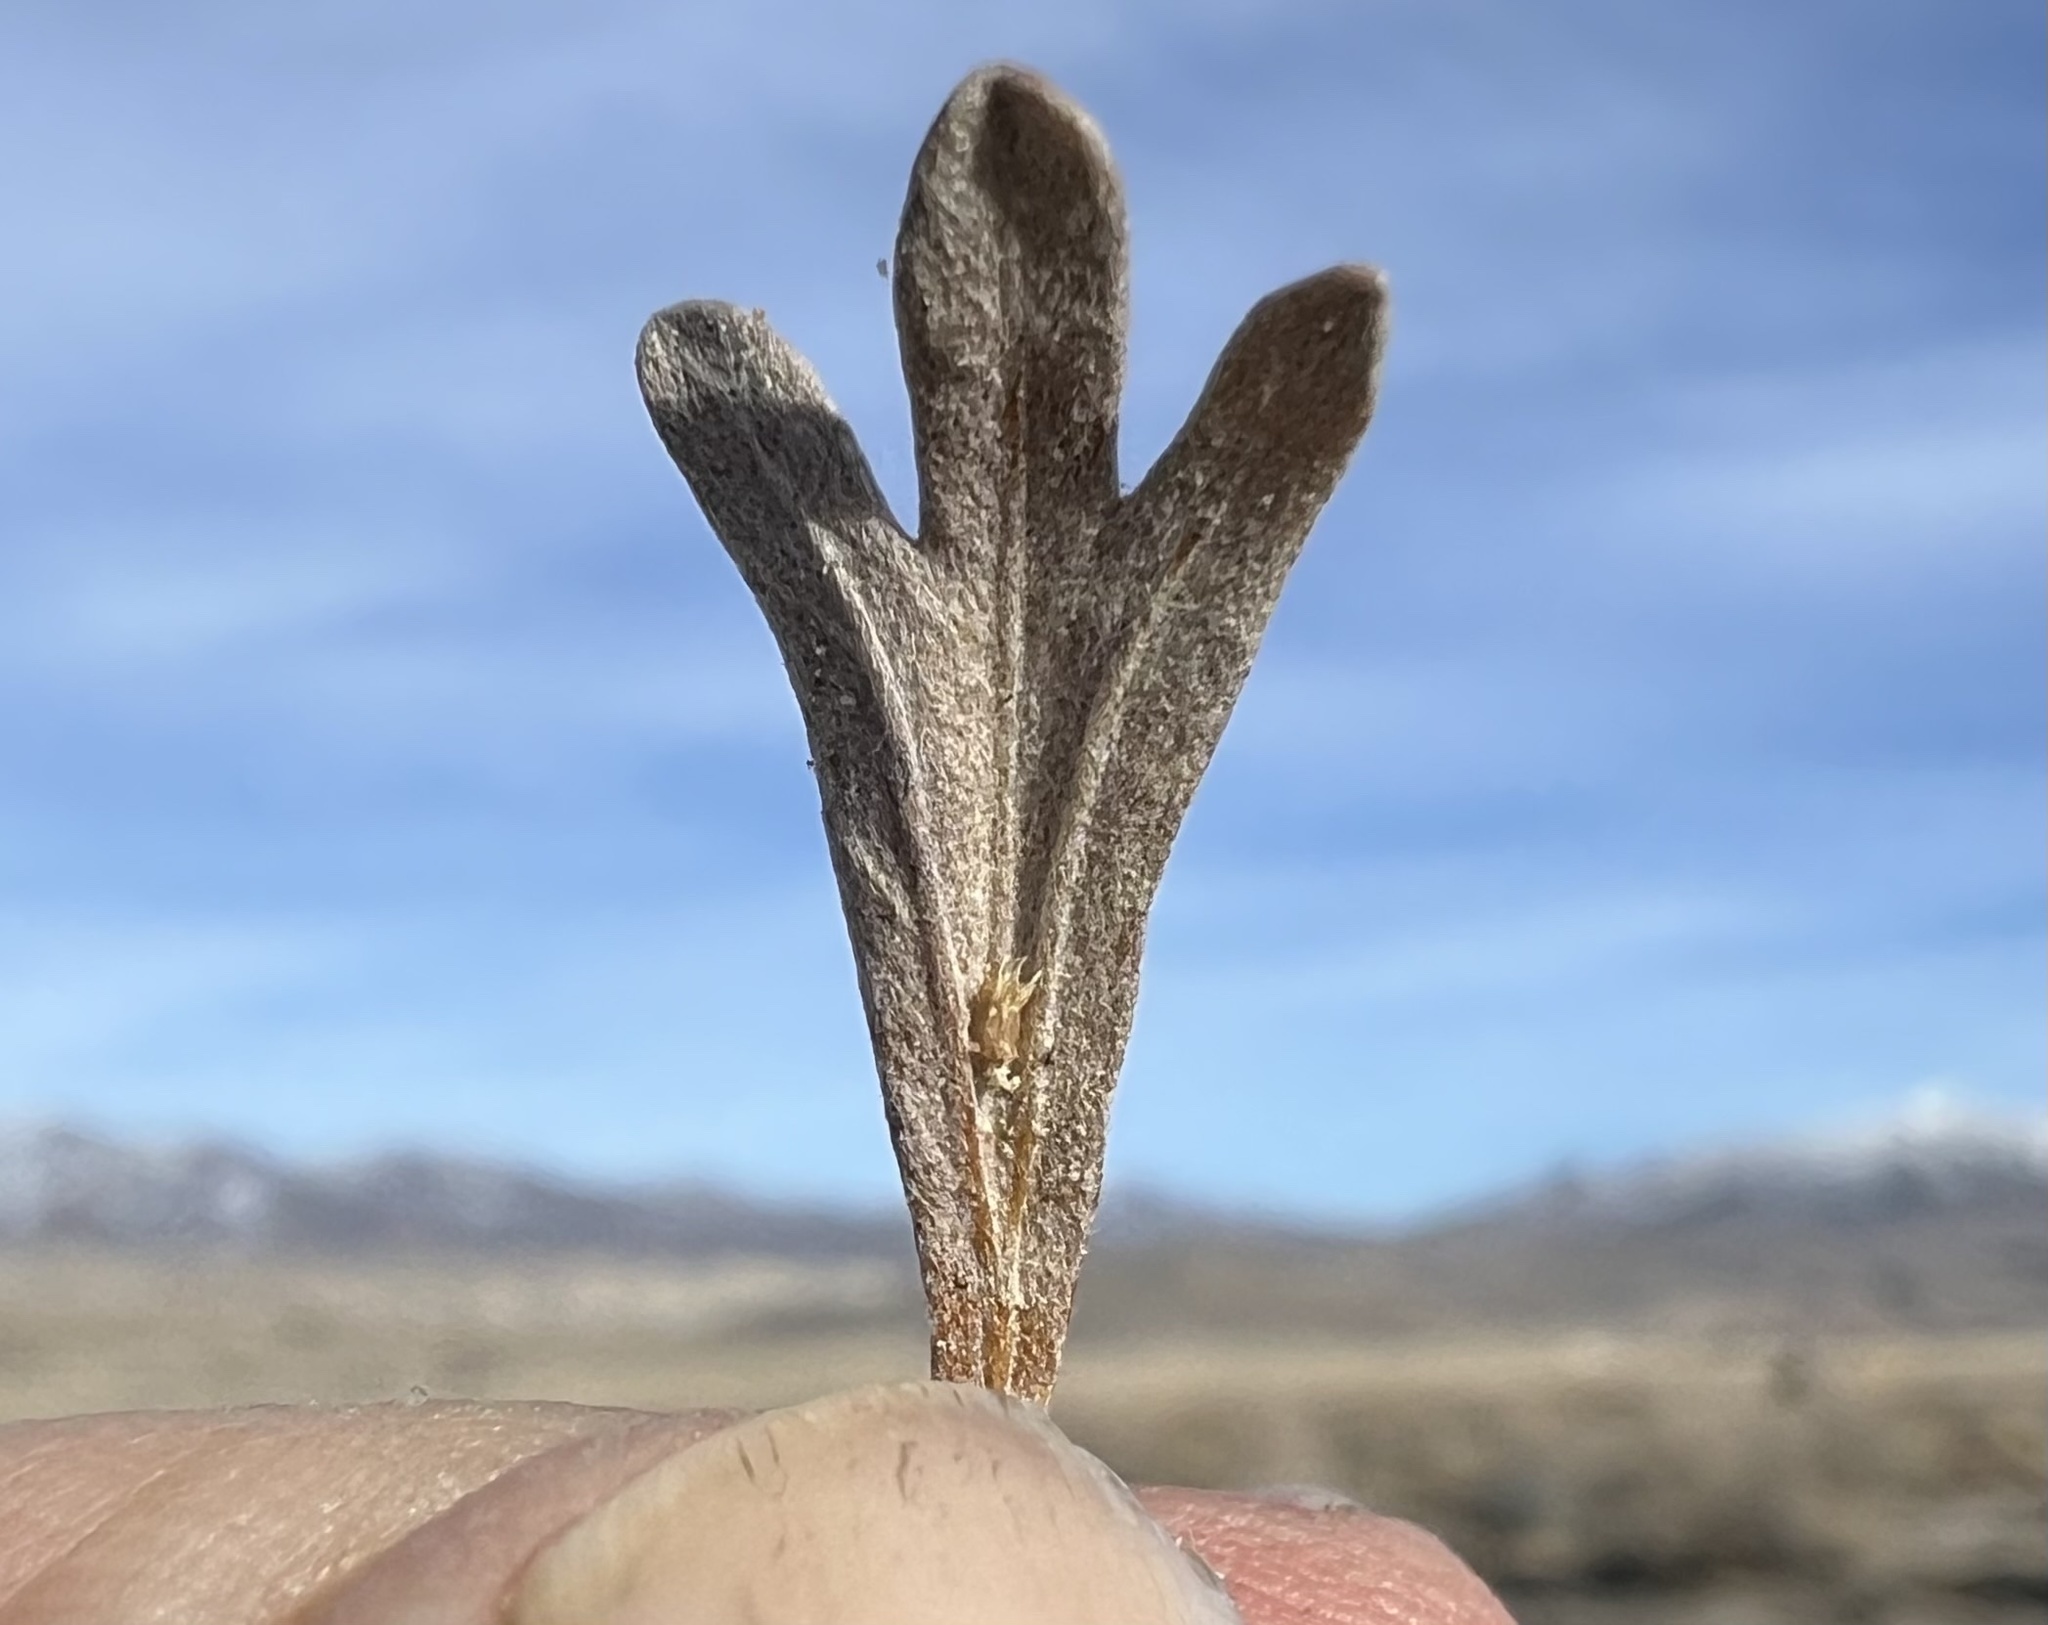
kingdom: Plantae
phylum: Tracheophyta
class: Magnoliopsida
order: Asterales
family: Asteraceae
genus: Artemisia
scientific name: Artemisia tridentata
